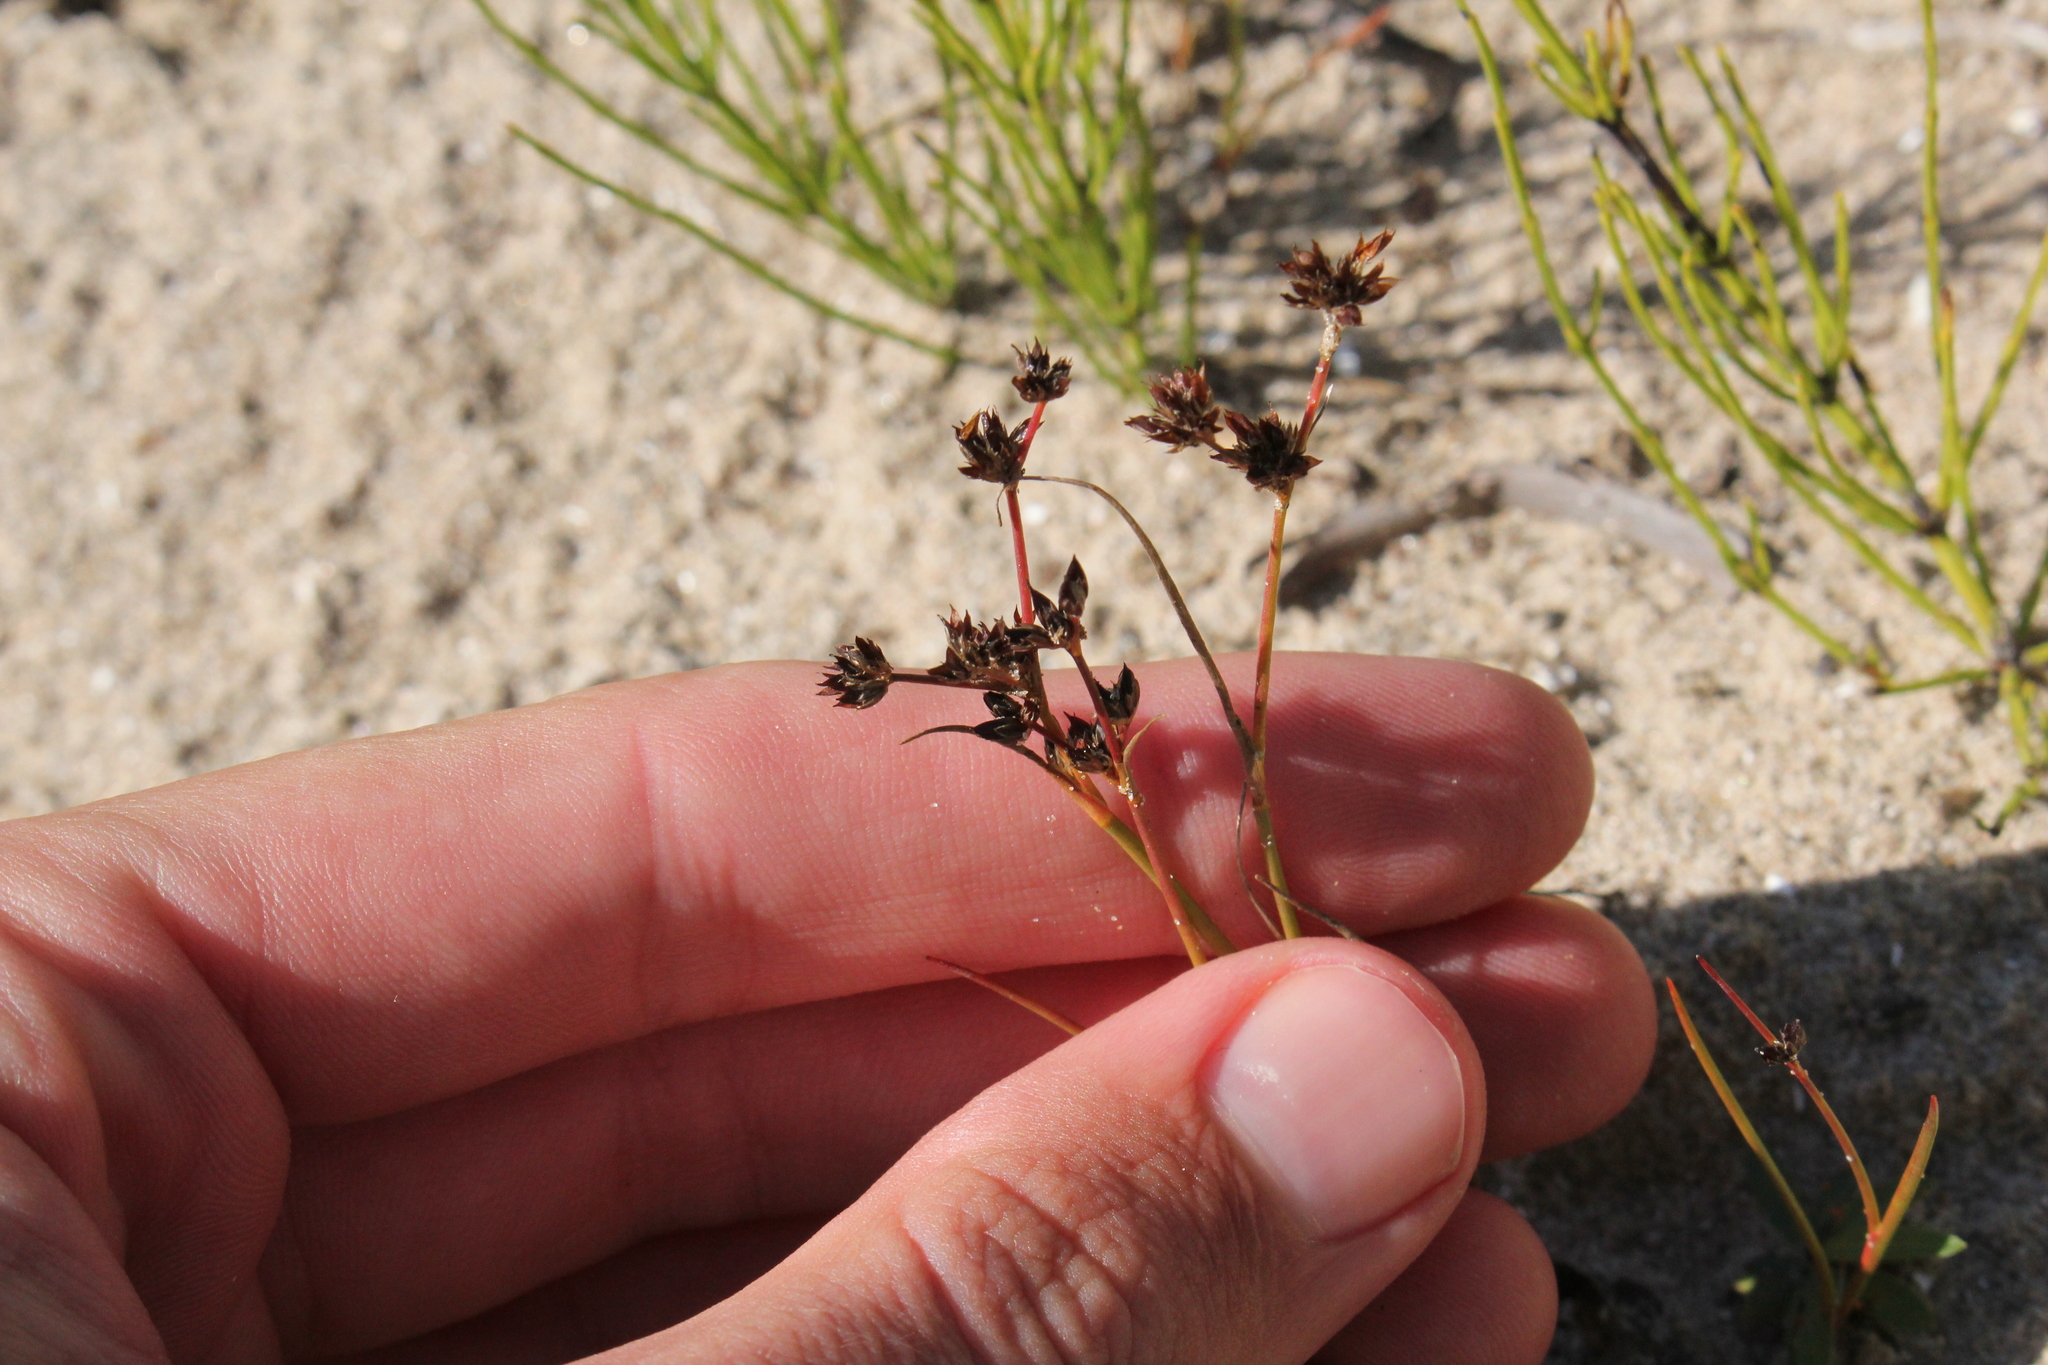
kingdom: Plantae
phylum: Tracheophyta
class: Liliopsida
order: Poales
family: Juncaceae
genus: Juncus
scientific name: Juncus articulatus
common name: Jointed rush
